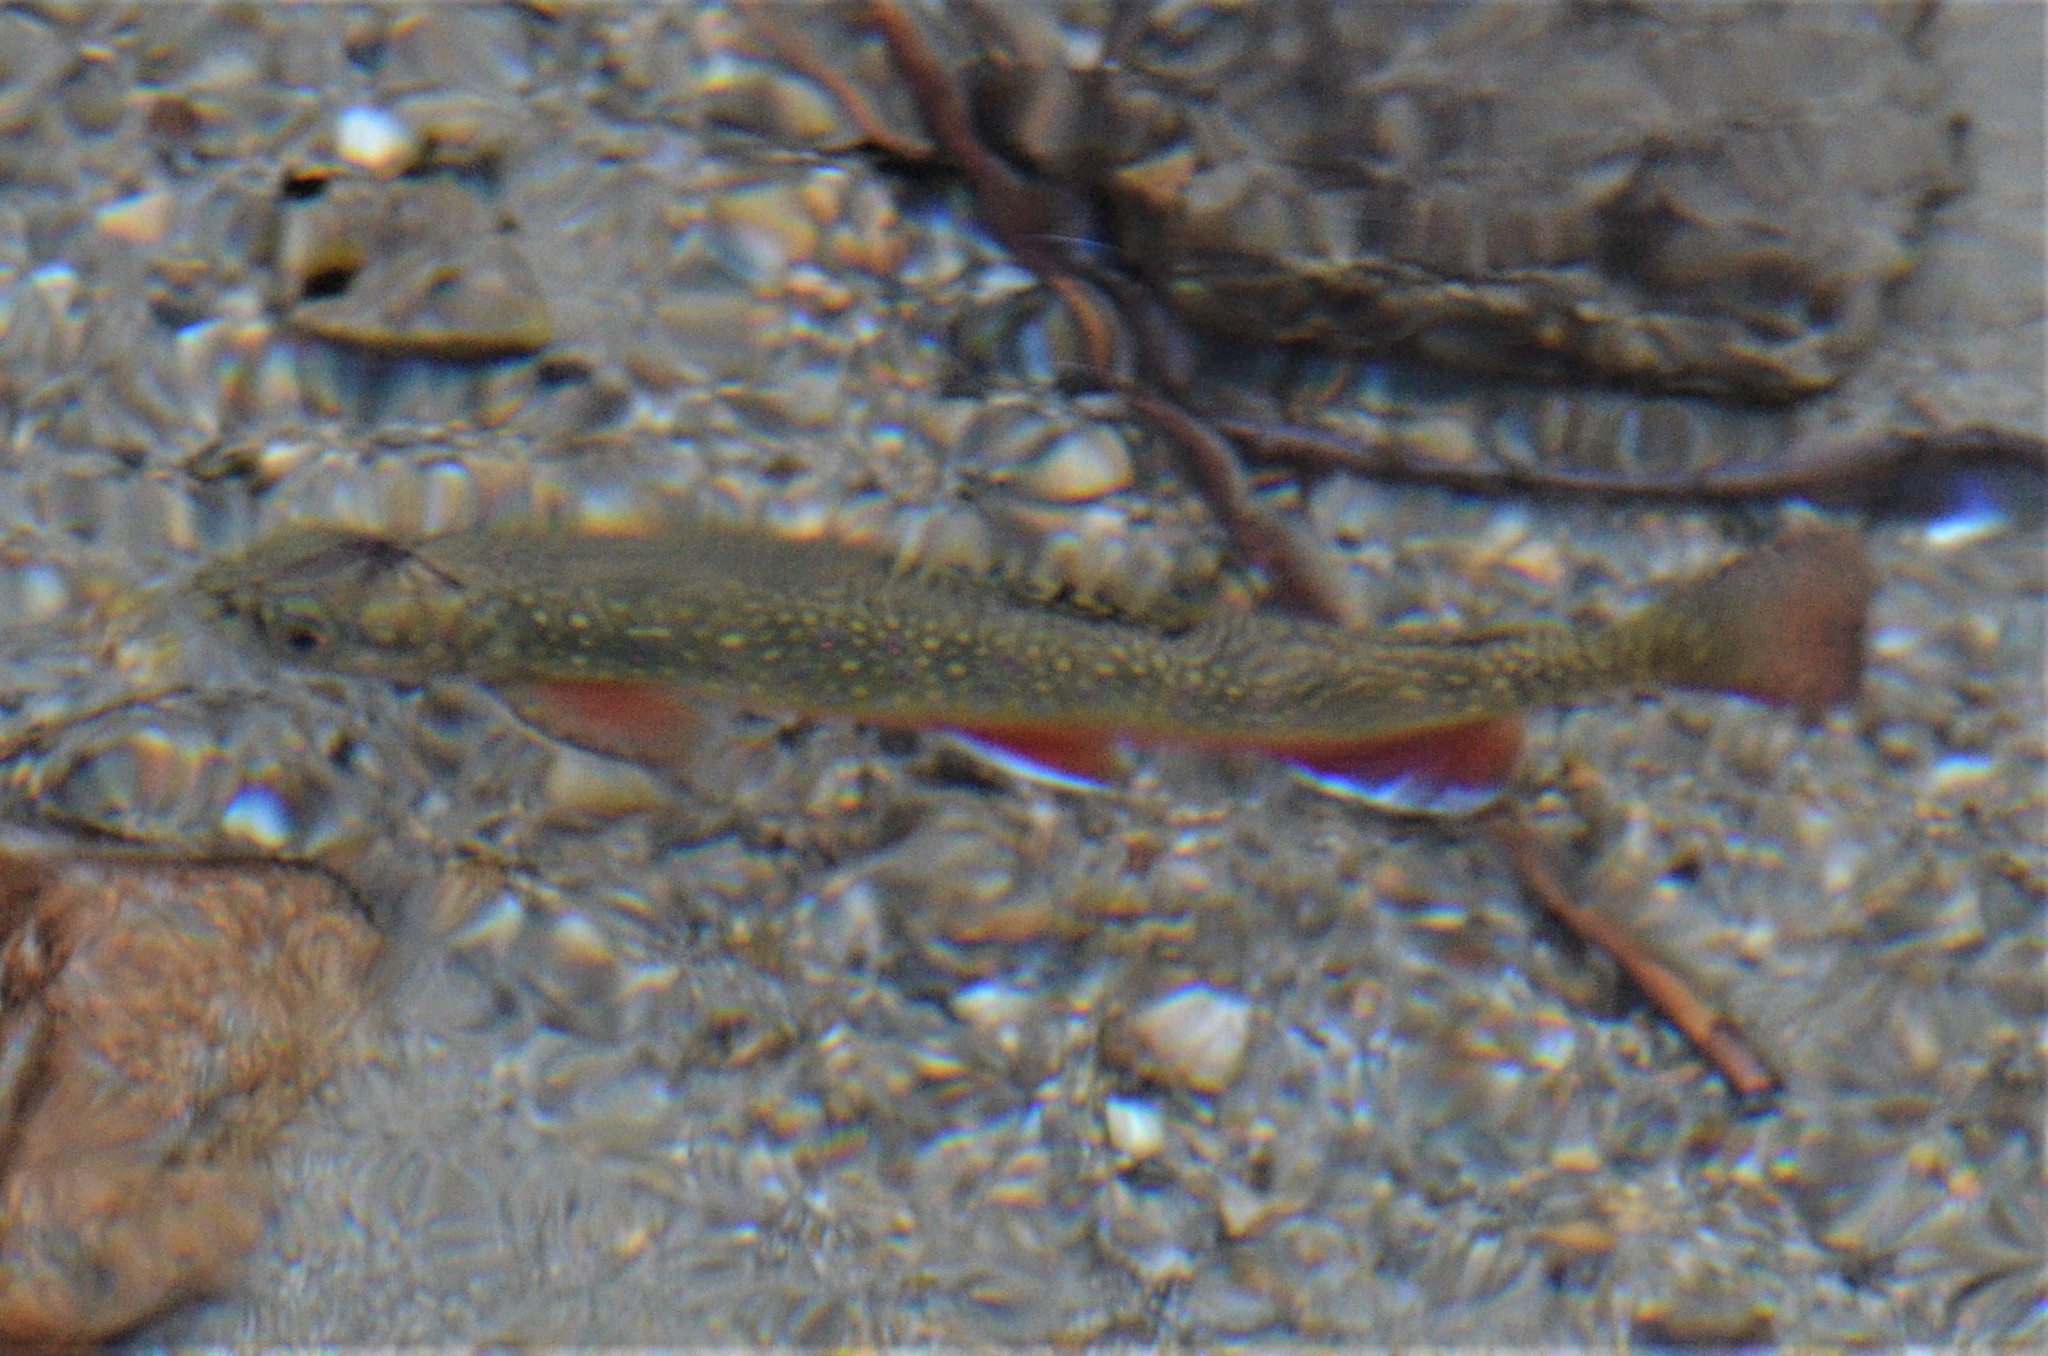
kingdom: Animalia
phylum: Chordata
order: Salmoniformes
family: Salmonidae
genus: Salvelinus
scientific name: Salvelinus fontinalis
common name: Brook trout
